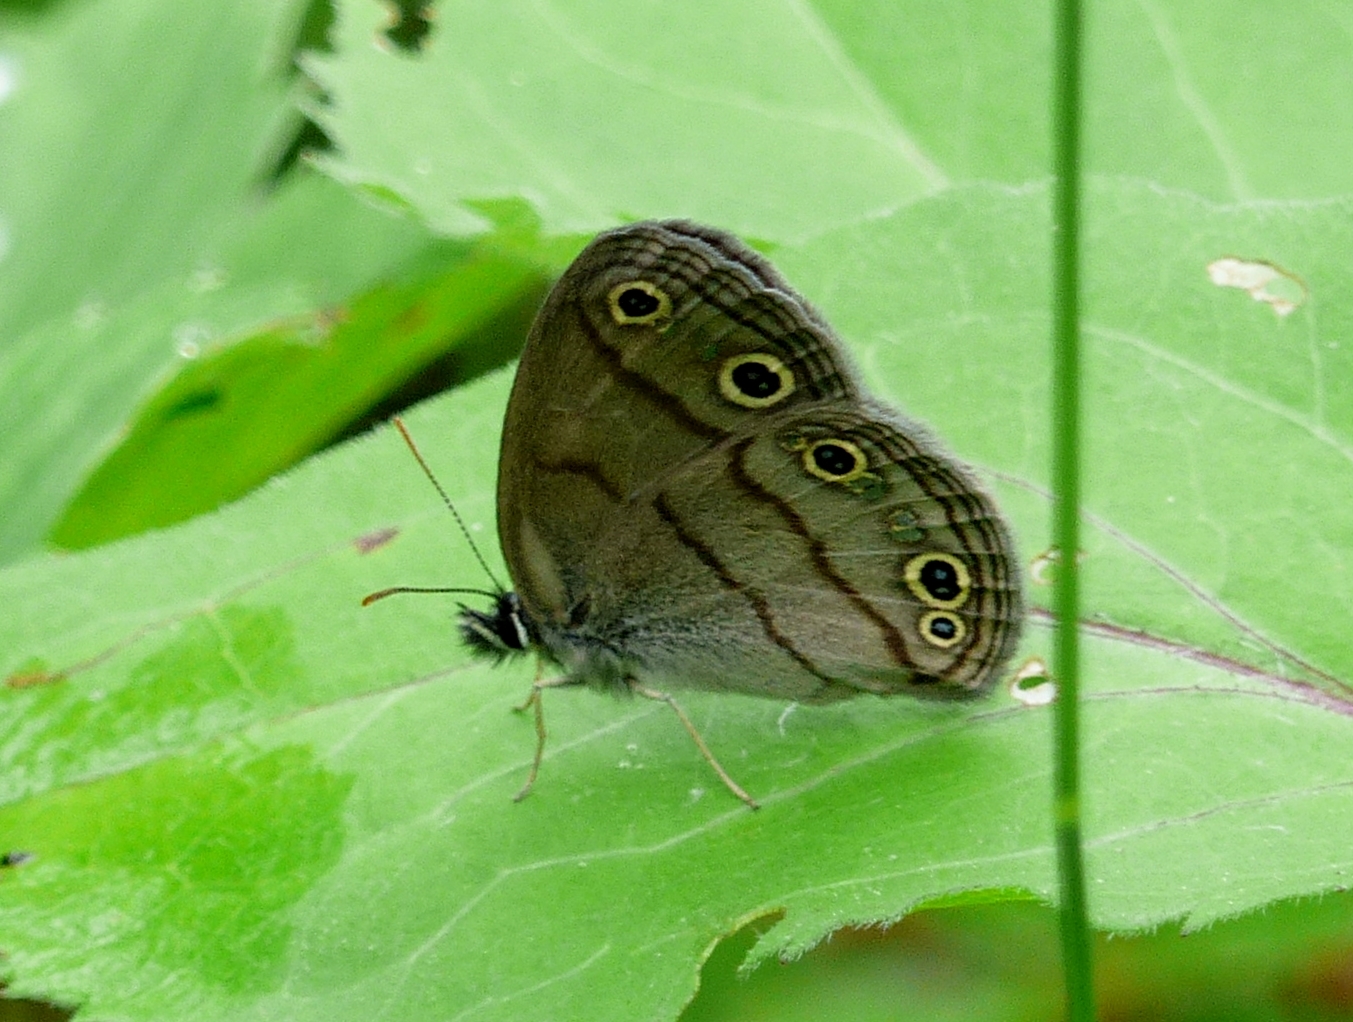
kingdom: Animalia
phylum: Arthropoda
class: Insecta
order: Lepidoptera
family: Nymphalidae
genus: Euptychia
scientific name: Euptychia cymela
